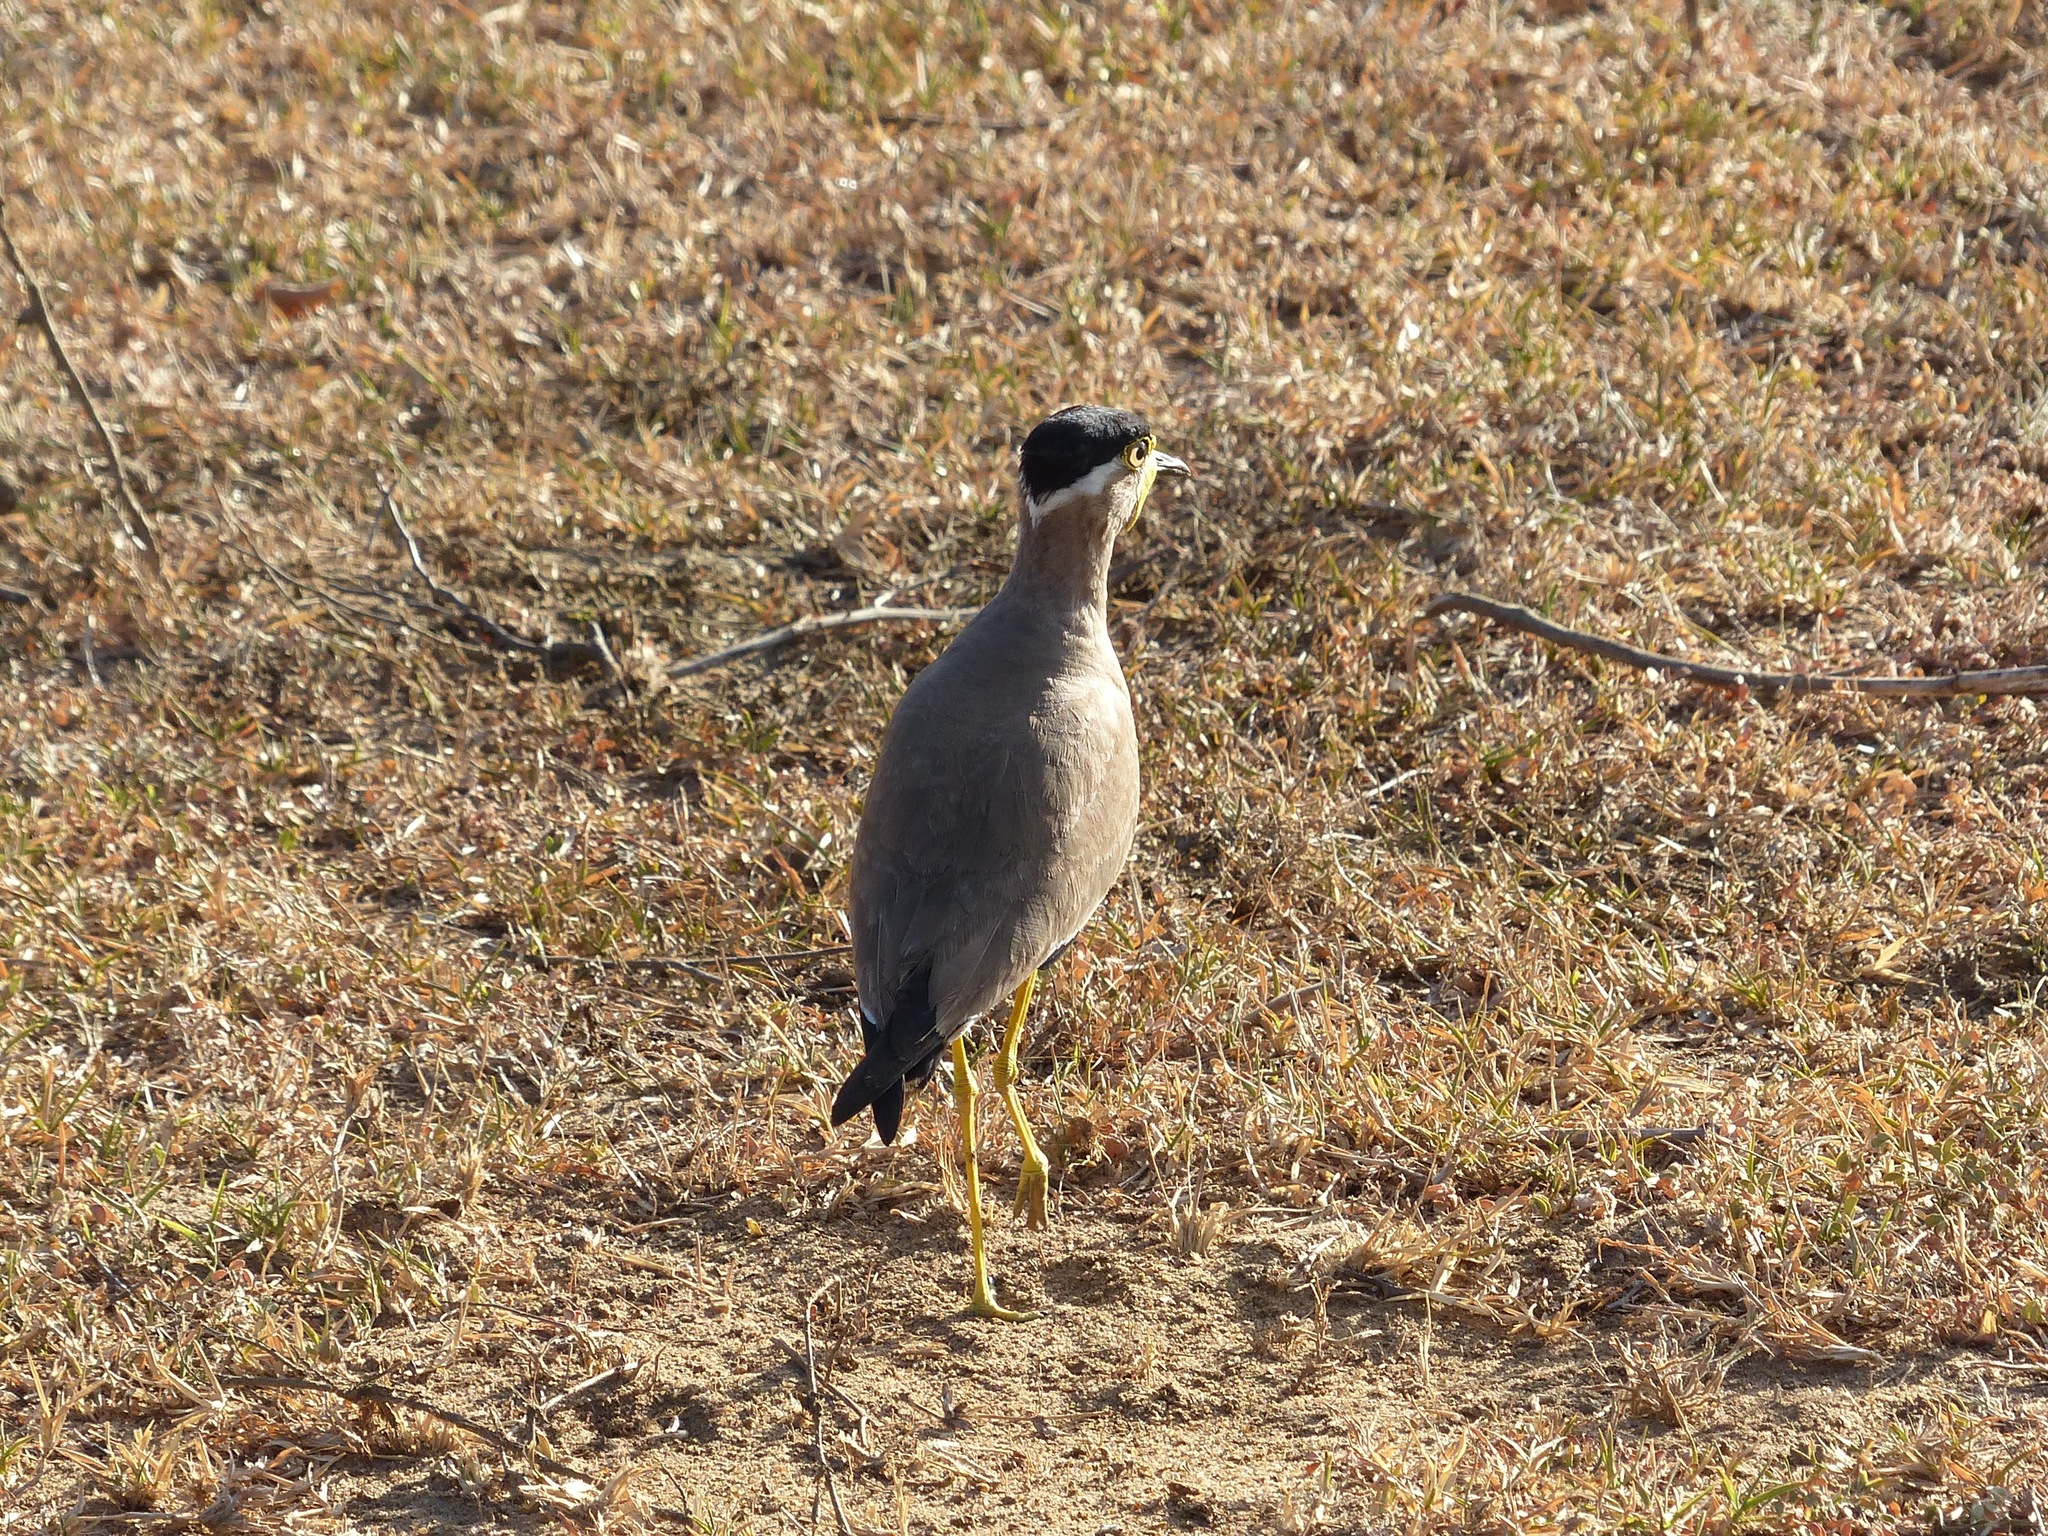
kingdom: Animalia
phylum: Chordata
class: Aves
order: Charadriiformes
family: Charadriidae
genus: Vanellus
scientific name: Vanellus malabaricus
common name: Yellow-wattled lapwing
